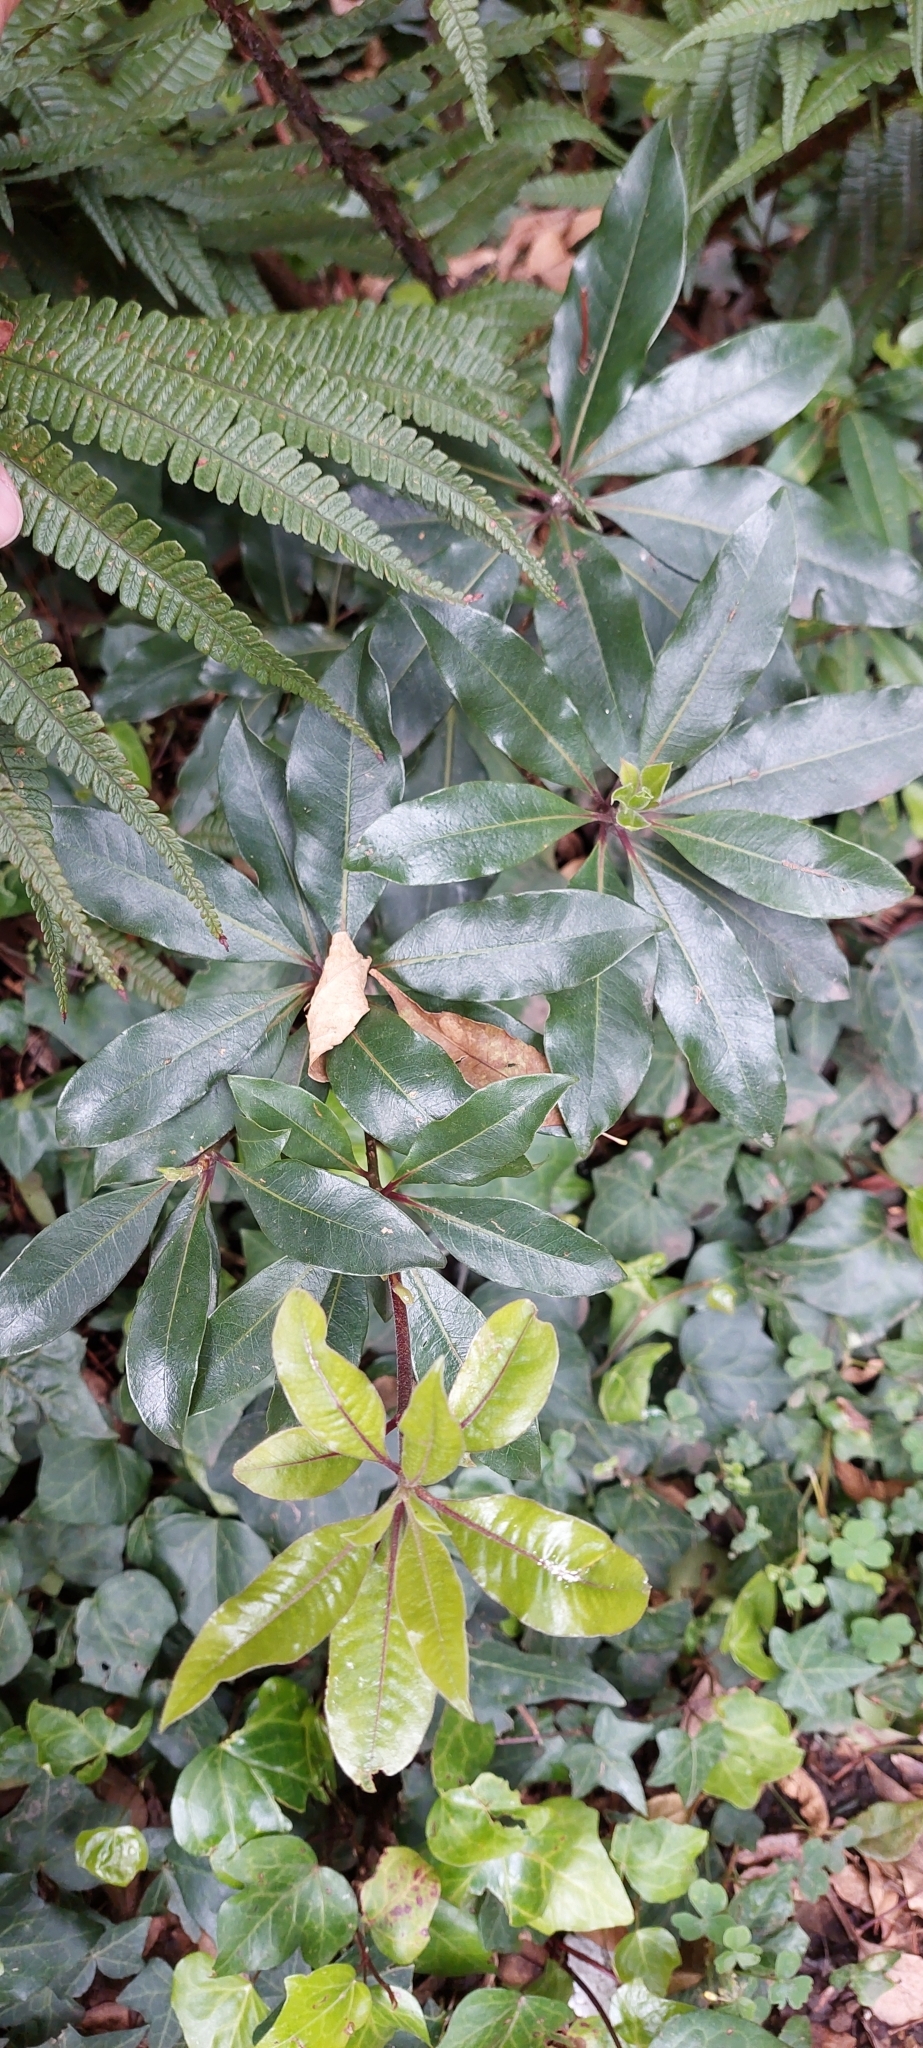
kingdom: Plantae
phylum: Tracheophyta
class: Magnoliopsida
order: Apiales
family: Pittosporaceae
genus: Pittosporum
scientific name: Pittosporum undulatum
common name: Australian cheesewood
